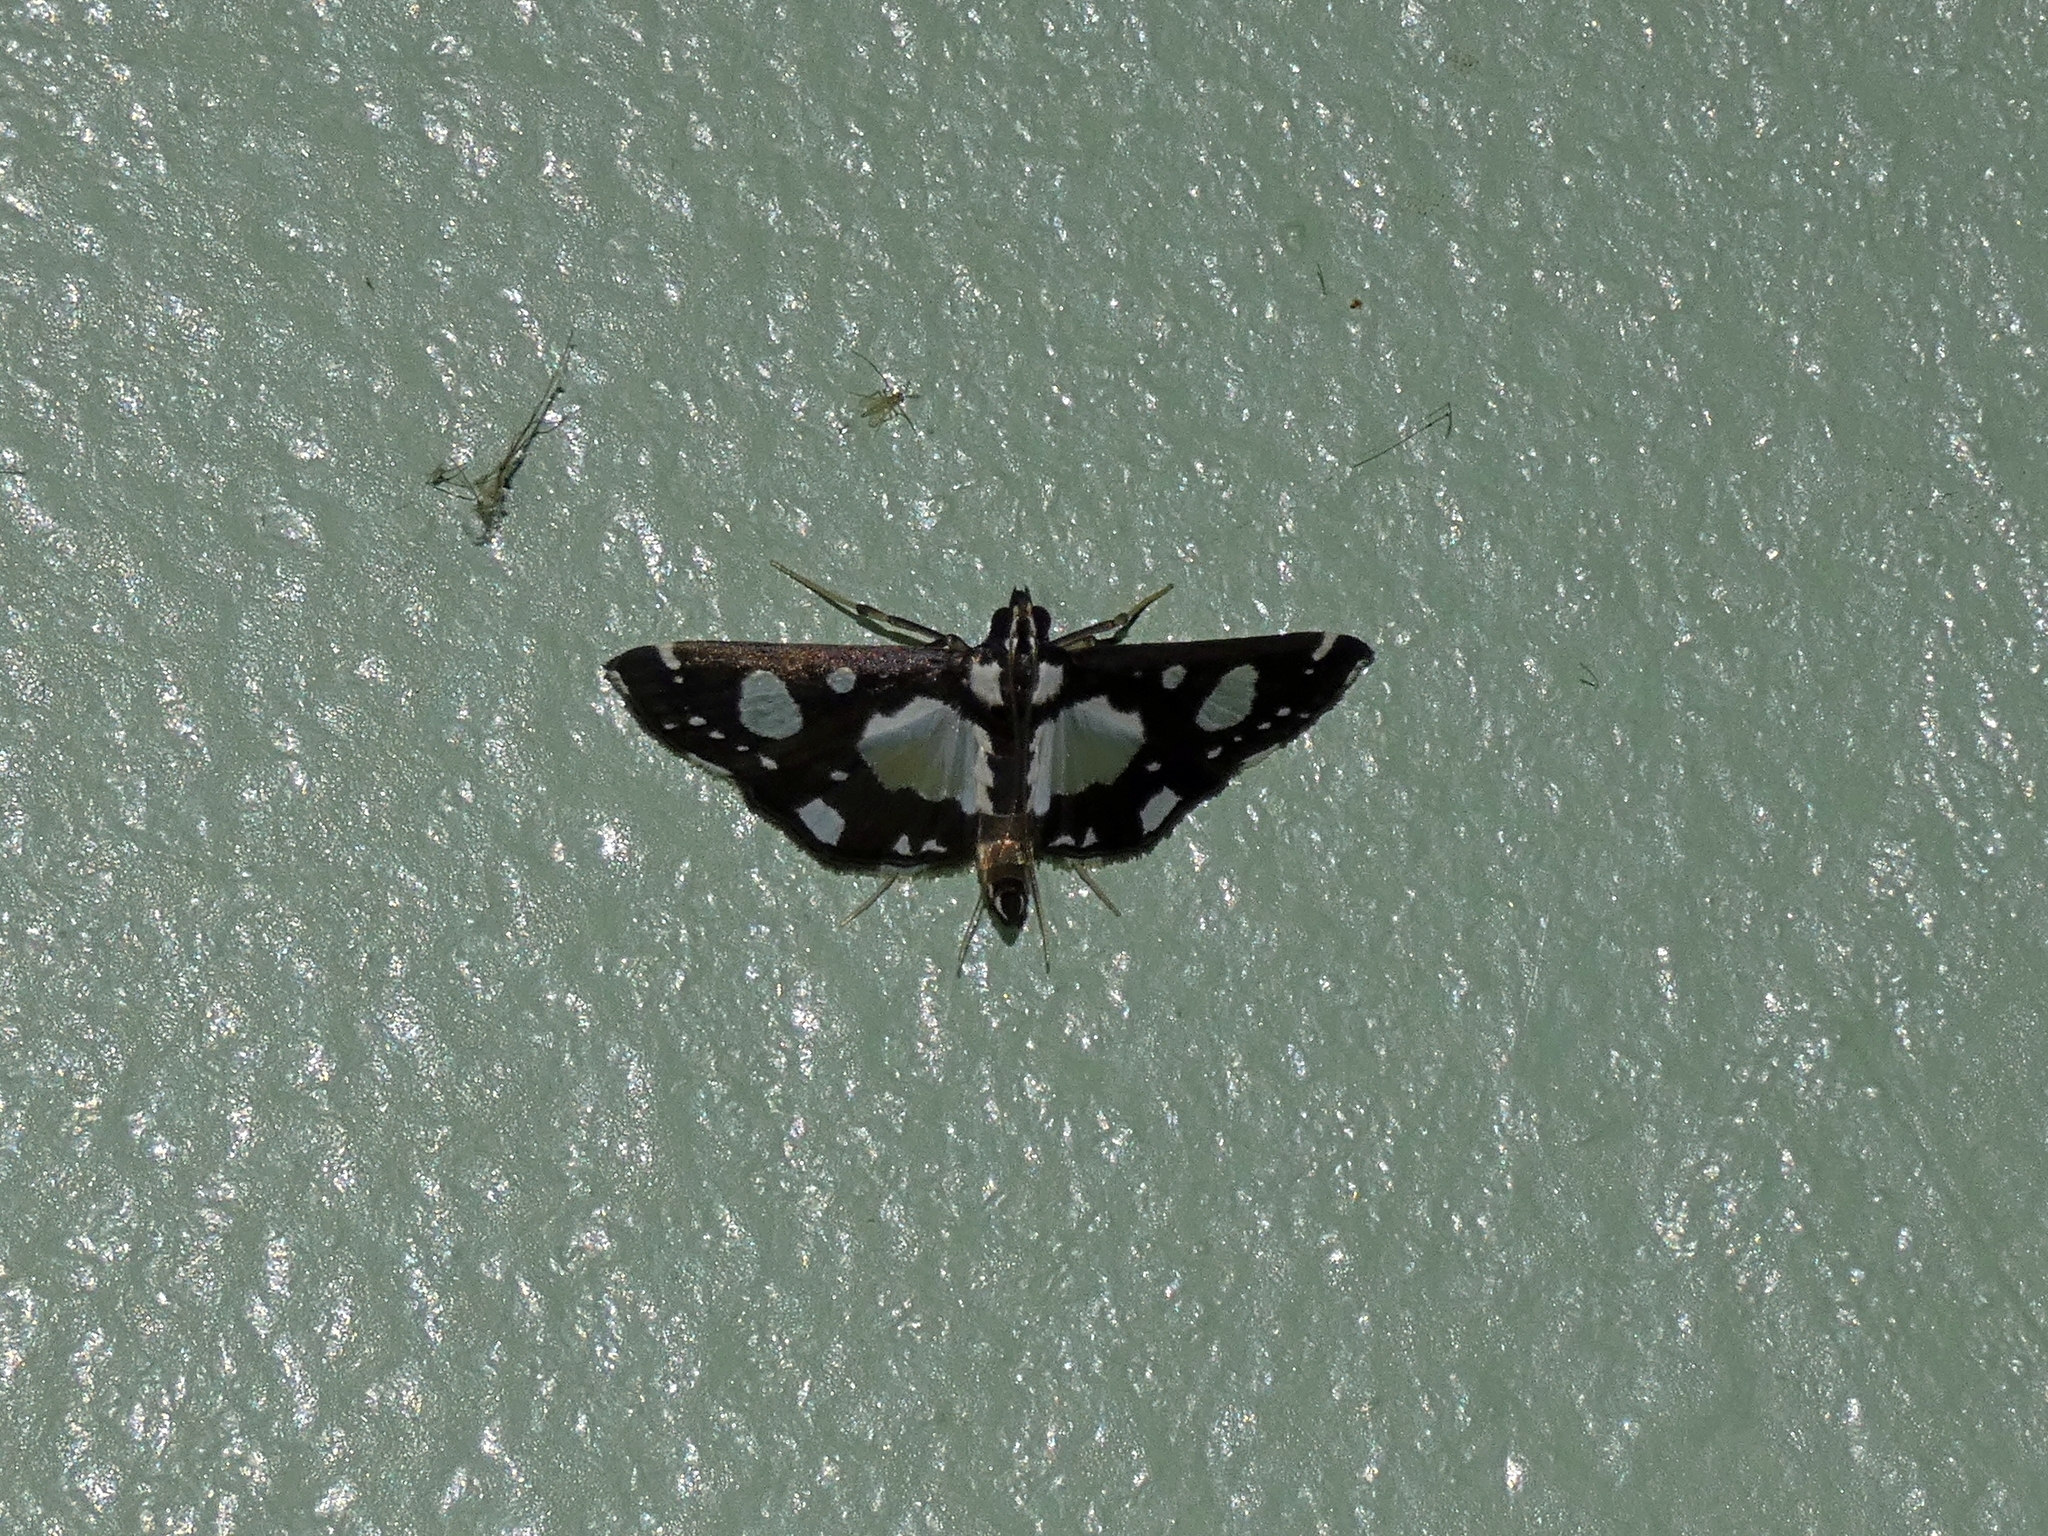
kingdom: Animalia
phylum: Arthropoda
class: Insecta
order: Lepidoptera
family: Crambidae
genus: Glyphodes
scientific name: Glyphodes conjunctalis
